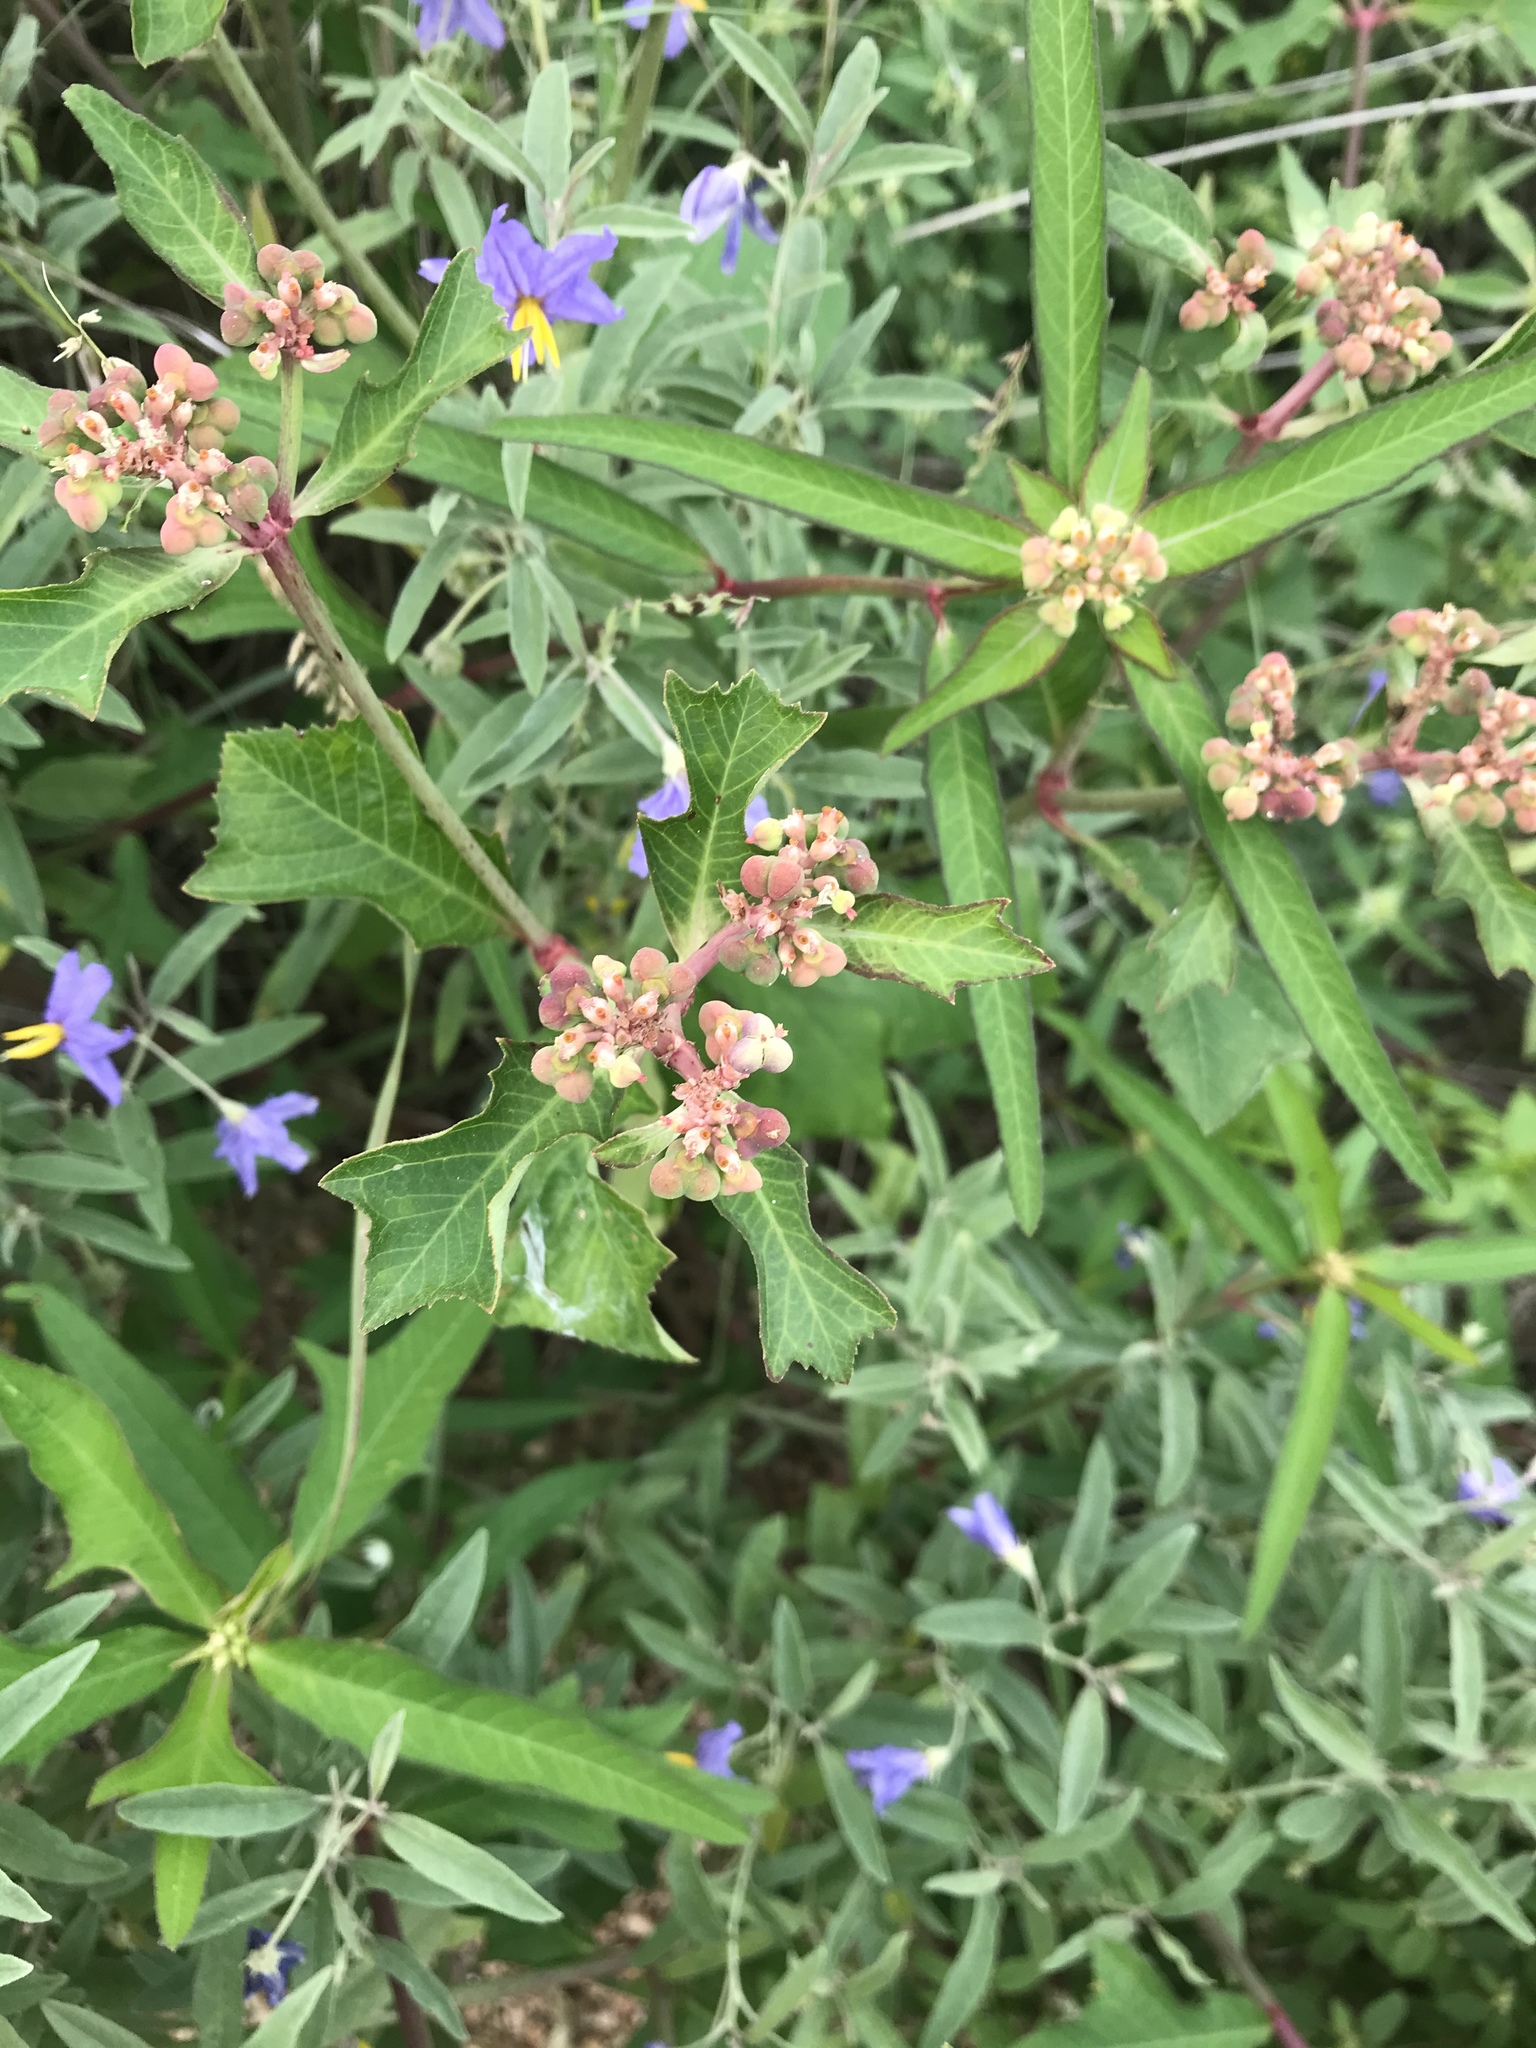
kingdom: Plantae
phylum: Tracheophyta
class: Magnoliopsida
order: Malpighiales
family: Euphorbiaceae
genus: Euphorbia
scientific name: Euphorbia heterophylla
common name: Mexican fireplant
